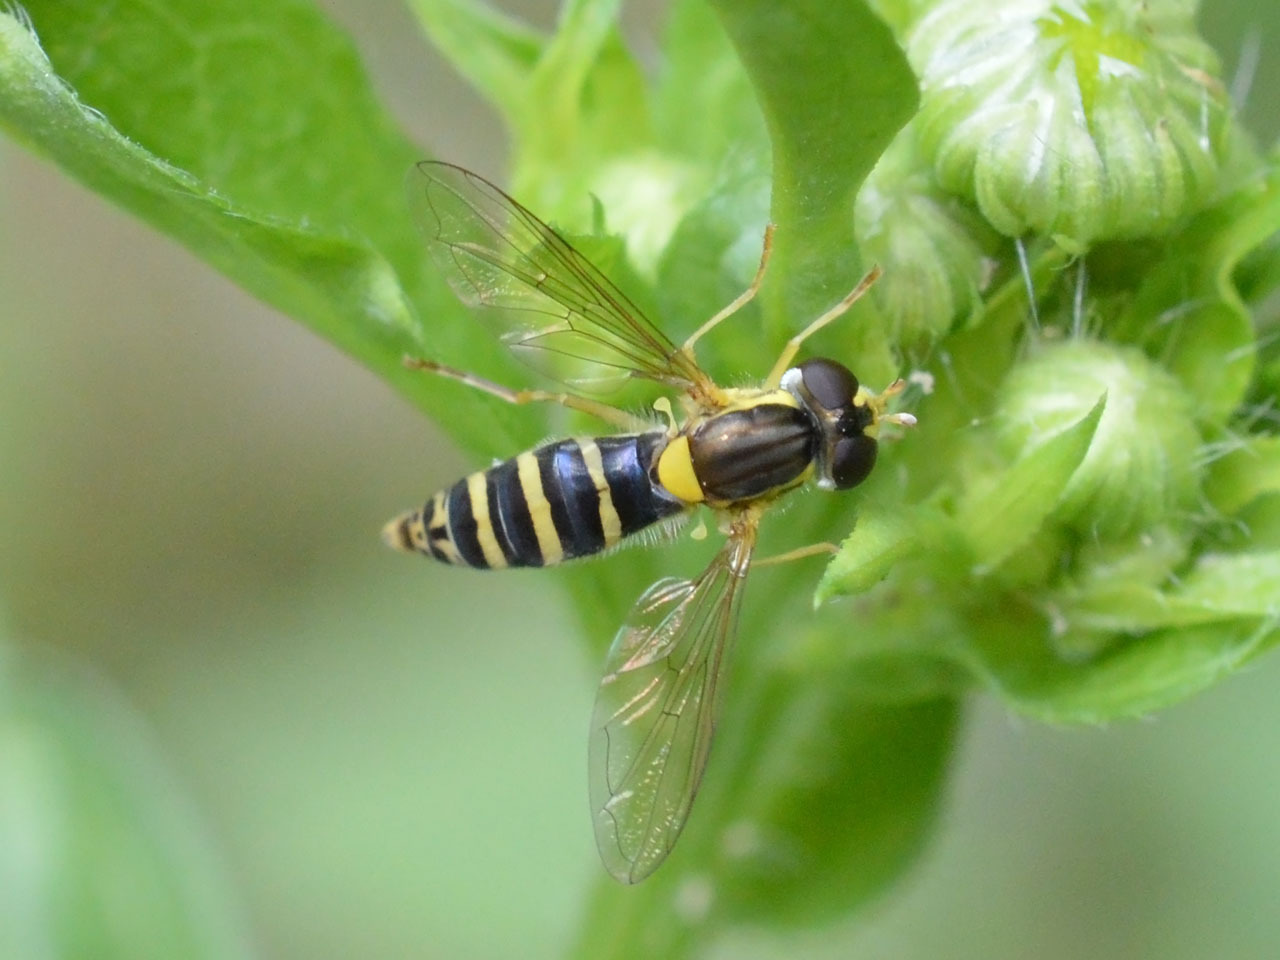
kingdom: Animalia
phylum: Arthropoda
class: Insecta
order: Diptera
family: Syrphidae
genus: Sphaerophoria
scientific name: Sphaerophoria
